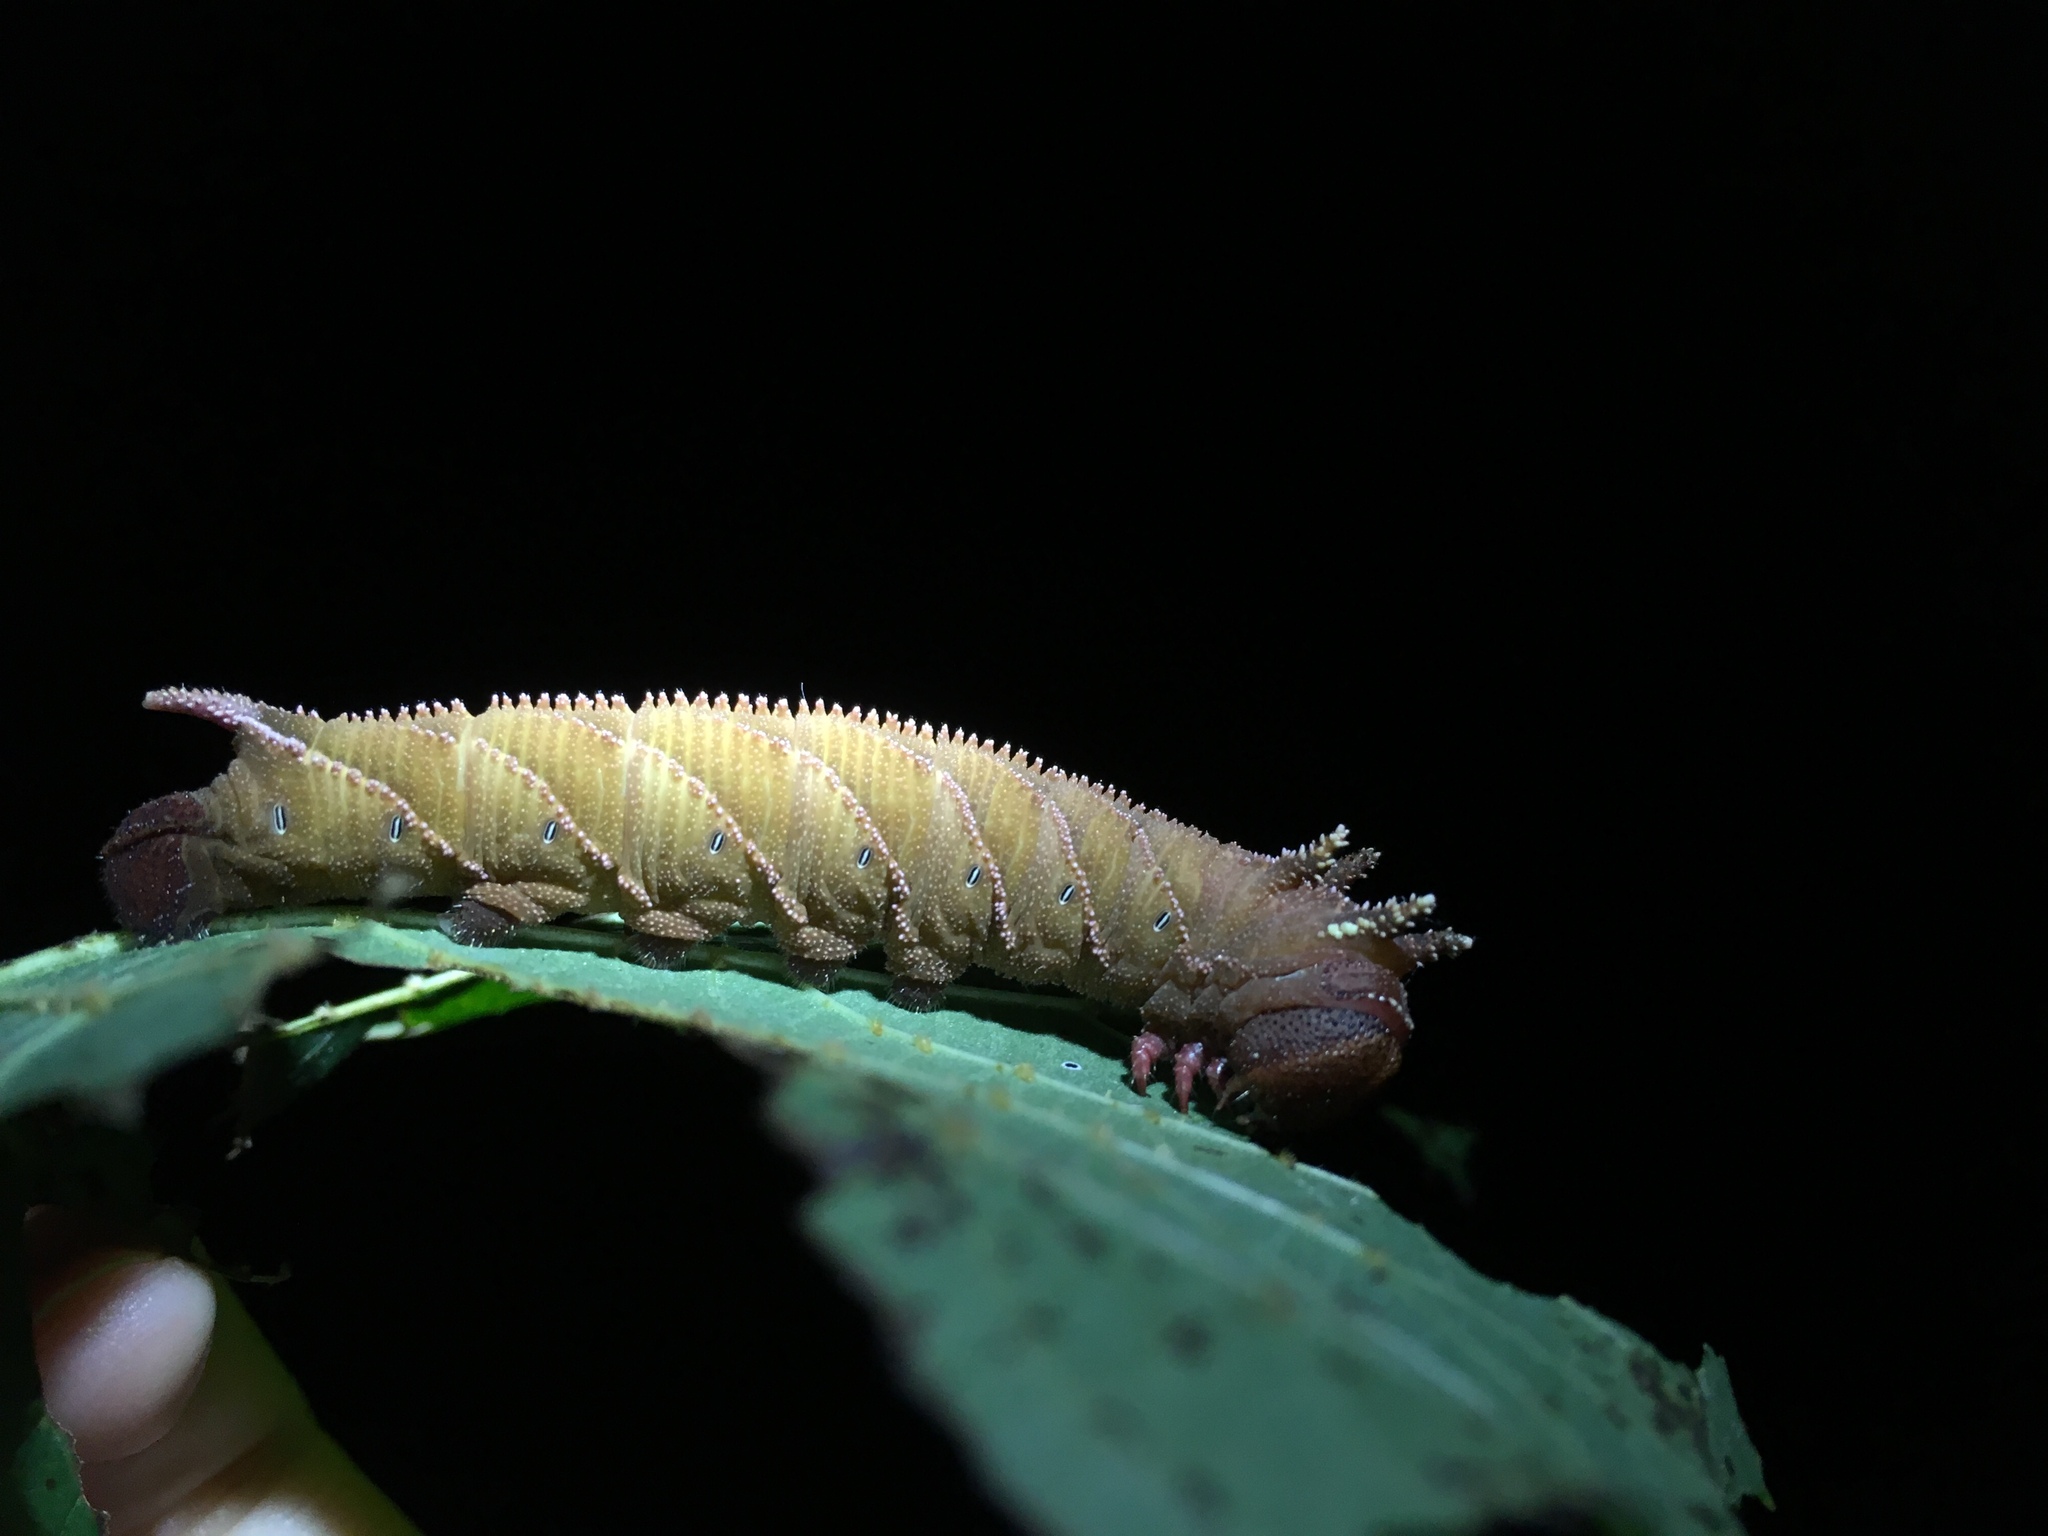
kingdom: Animalia
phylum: Arthropoda
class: Insecta
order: Lepidoptera
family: Sphingidae
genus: Ceratomia
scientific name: Ceratomia amyntor
